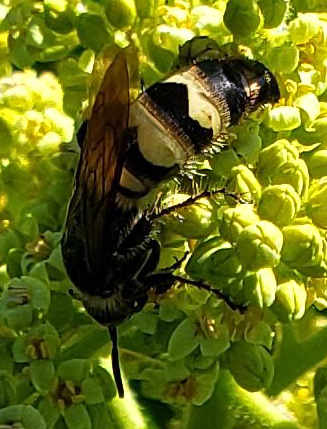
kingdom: Animalia
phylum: Arthropoda
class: Insecta
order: Hymenoptera
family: Scoliidae
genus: Dielis
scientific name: Dielis
